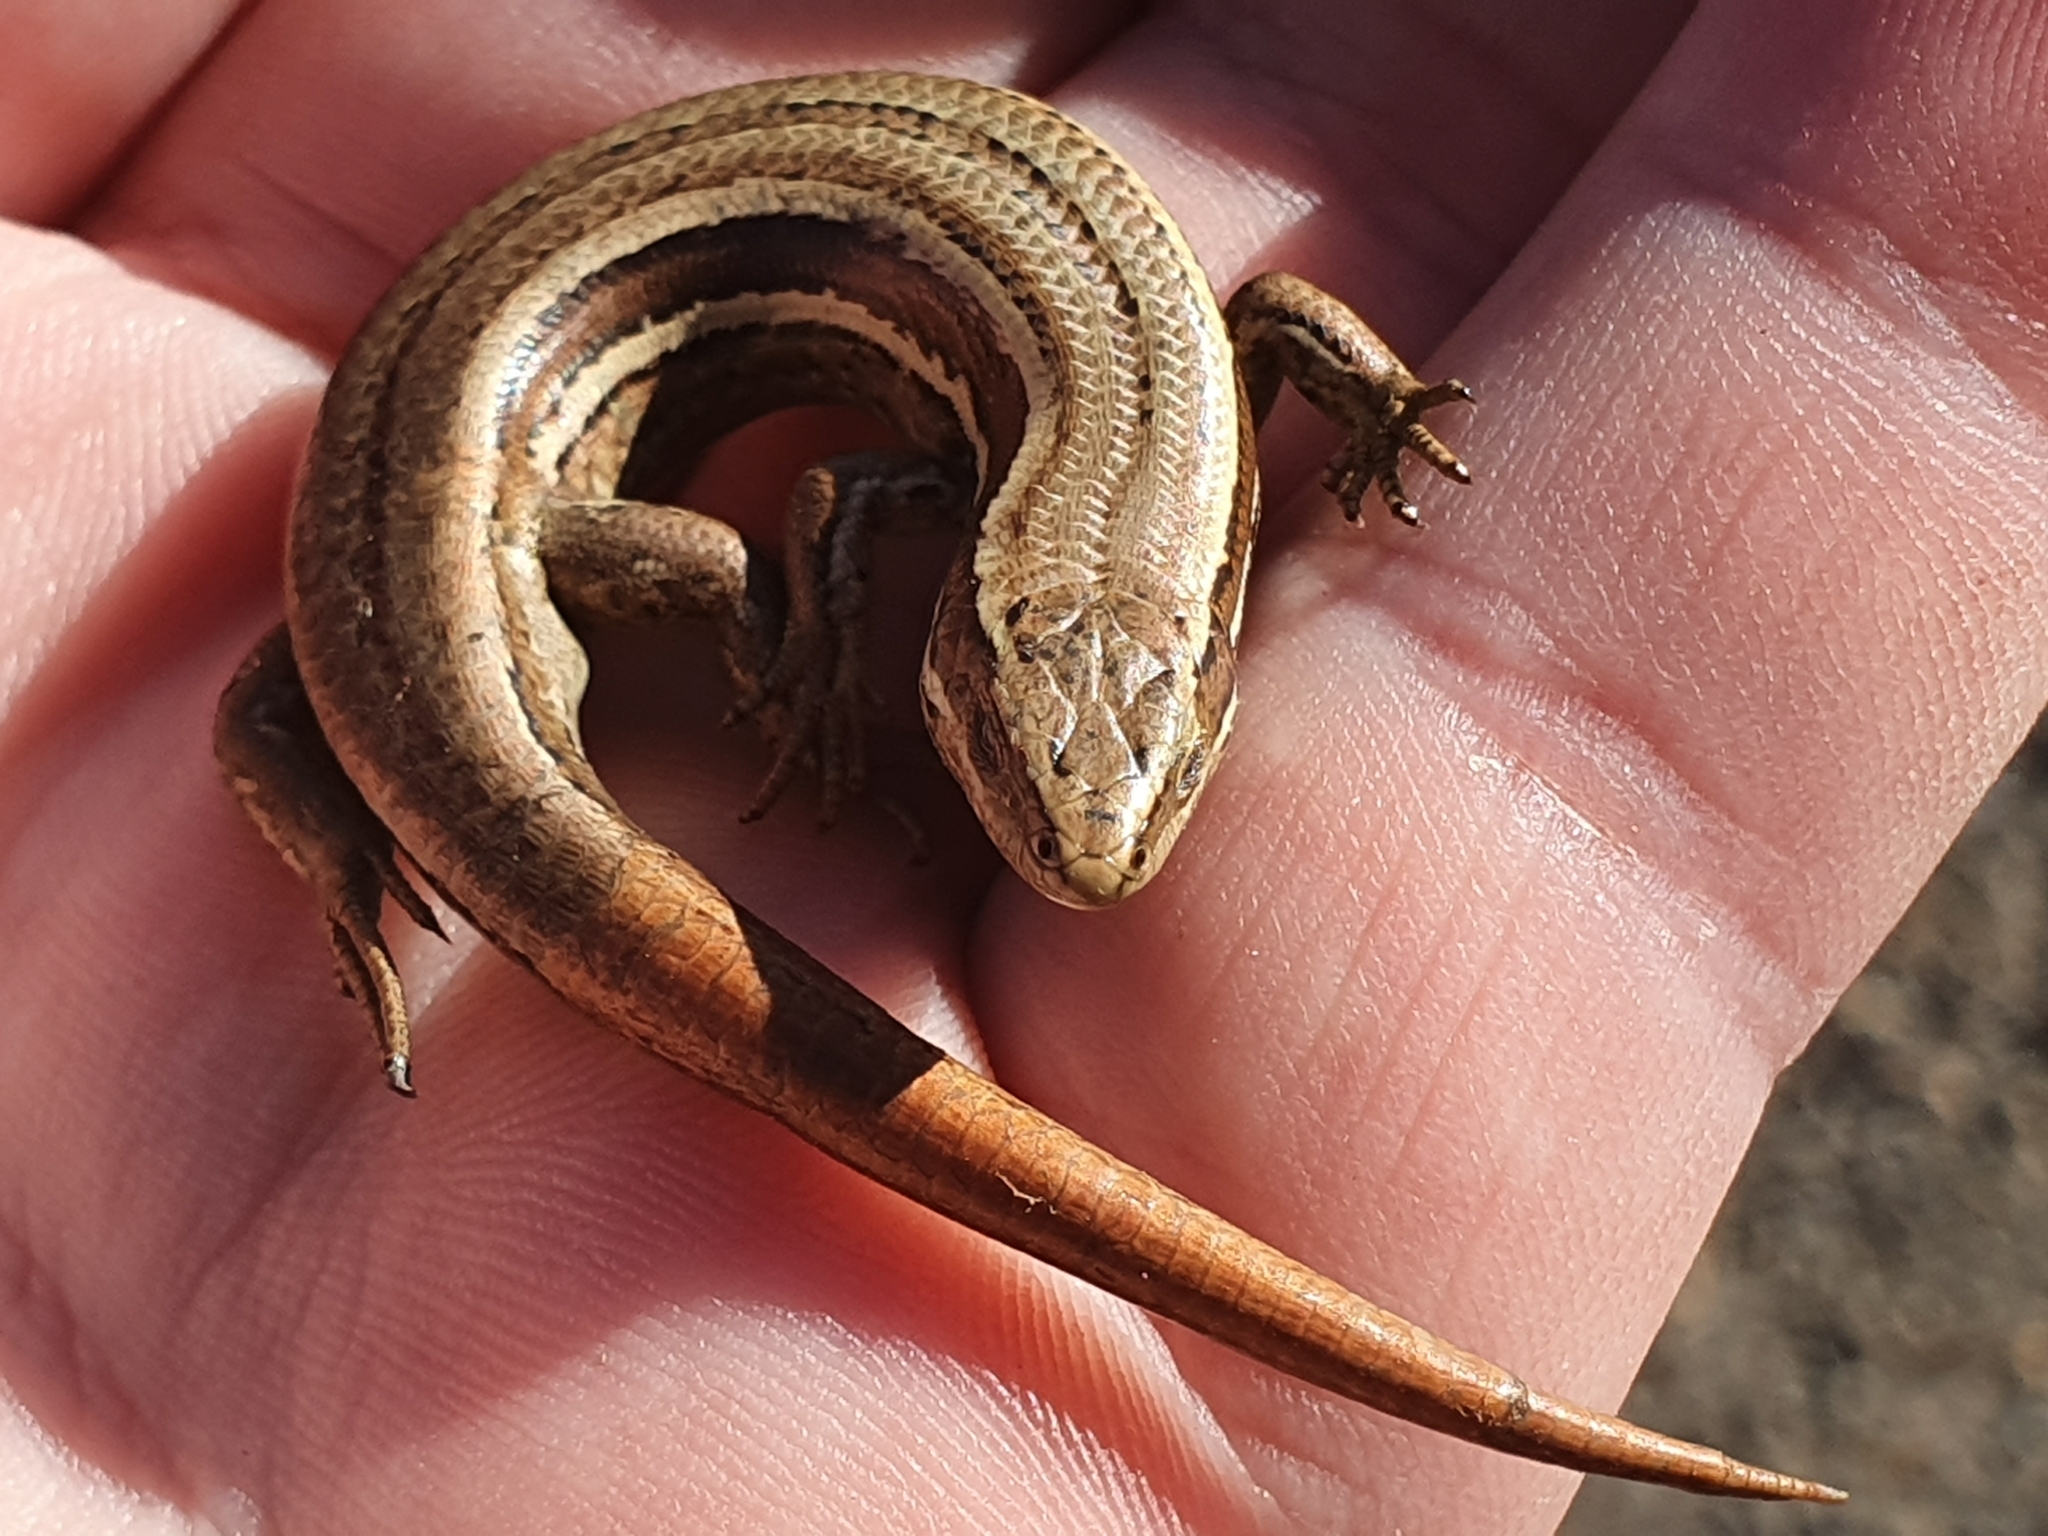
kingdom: Animalia
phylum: Chordata
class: Squamata
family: Scincidae
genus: Oligosoma
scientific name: Oligosoma polychroma
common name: Common new zealand skink
